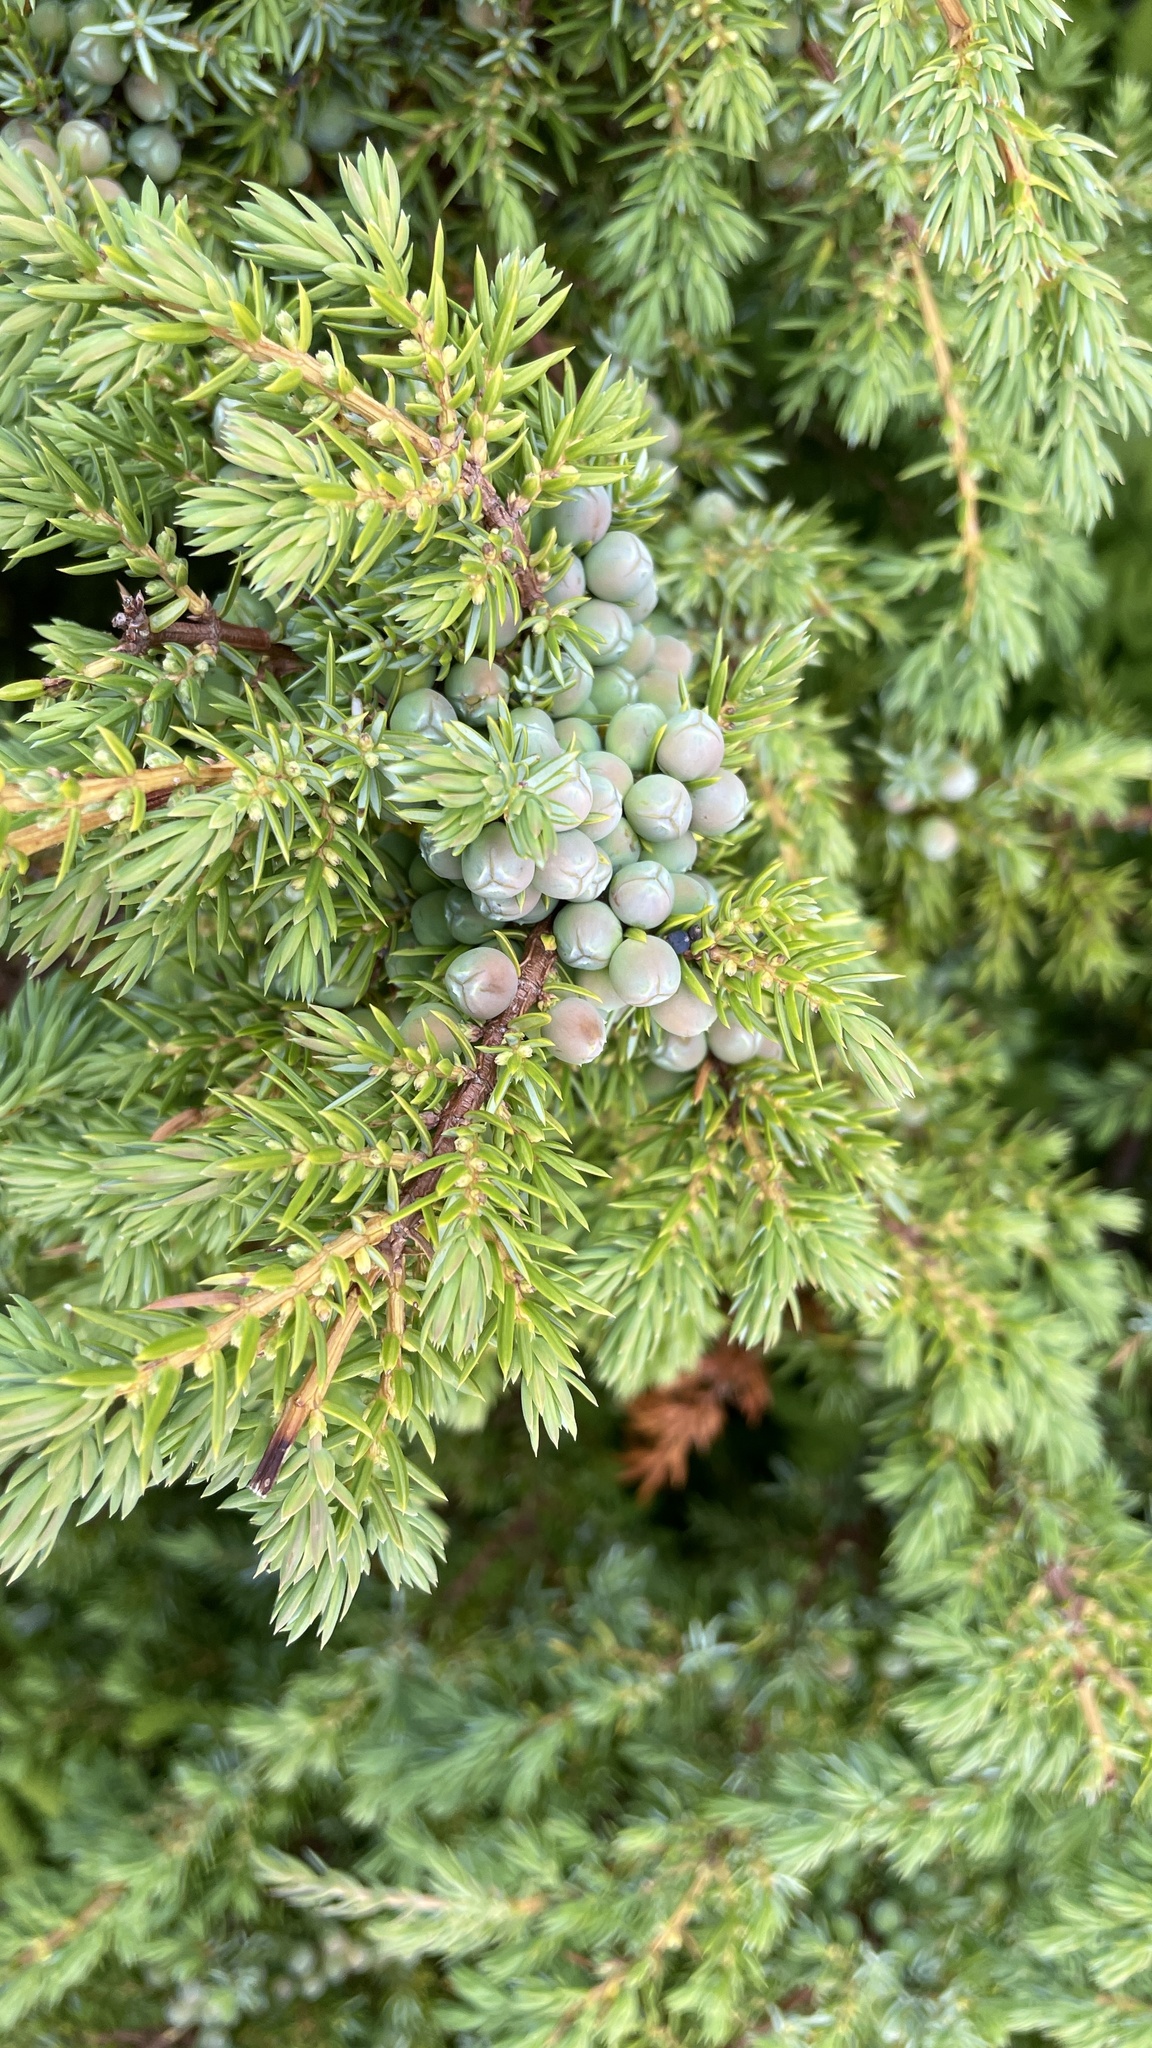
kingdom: Plantae
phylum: Tracheophyta
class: Pinopsida
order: Pinales
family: Cupressaceae
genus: Juniperus
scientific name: Juniperus communis
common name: Common juniper
